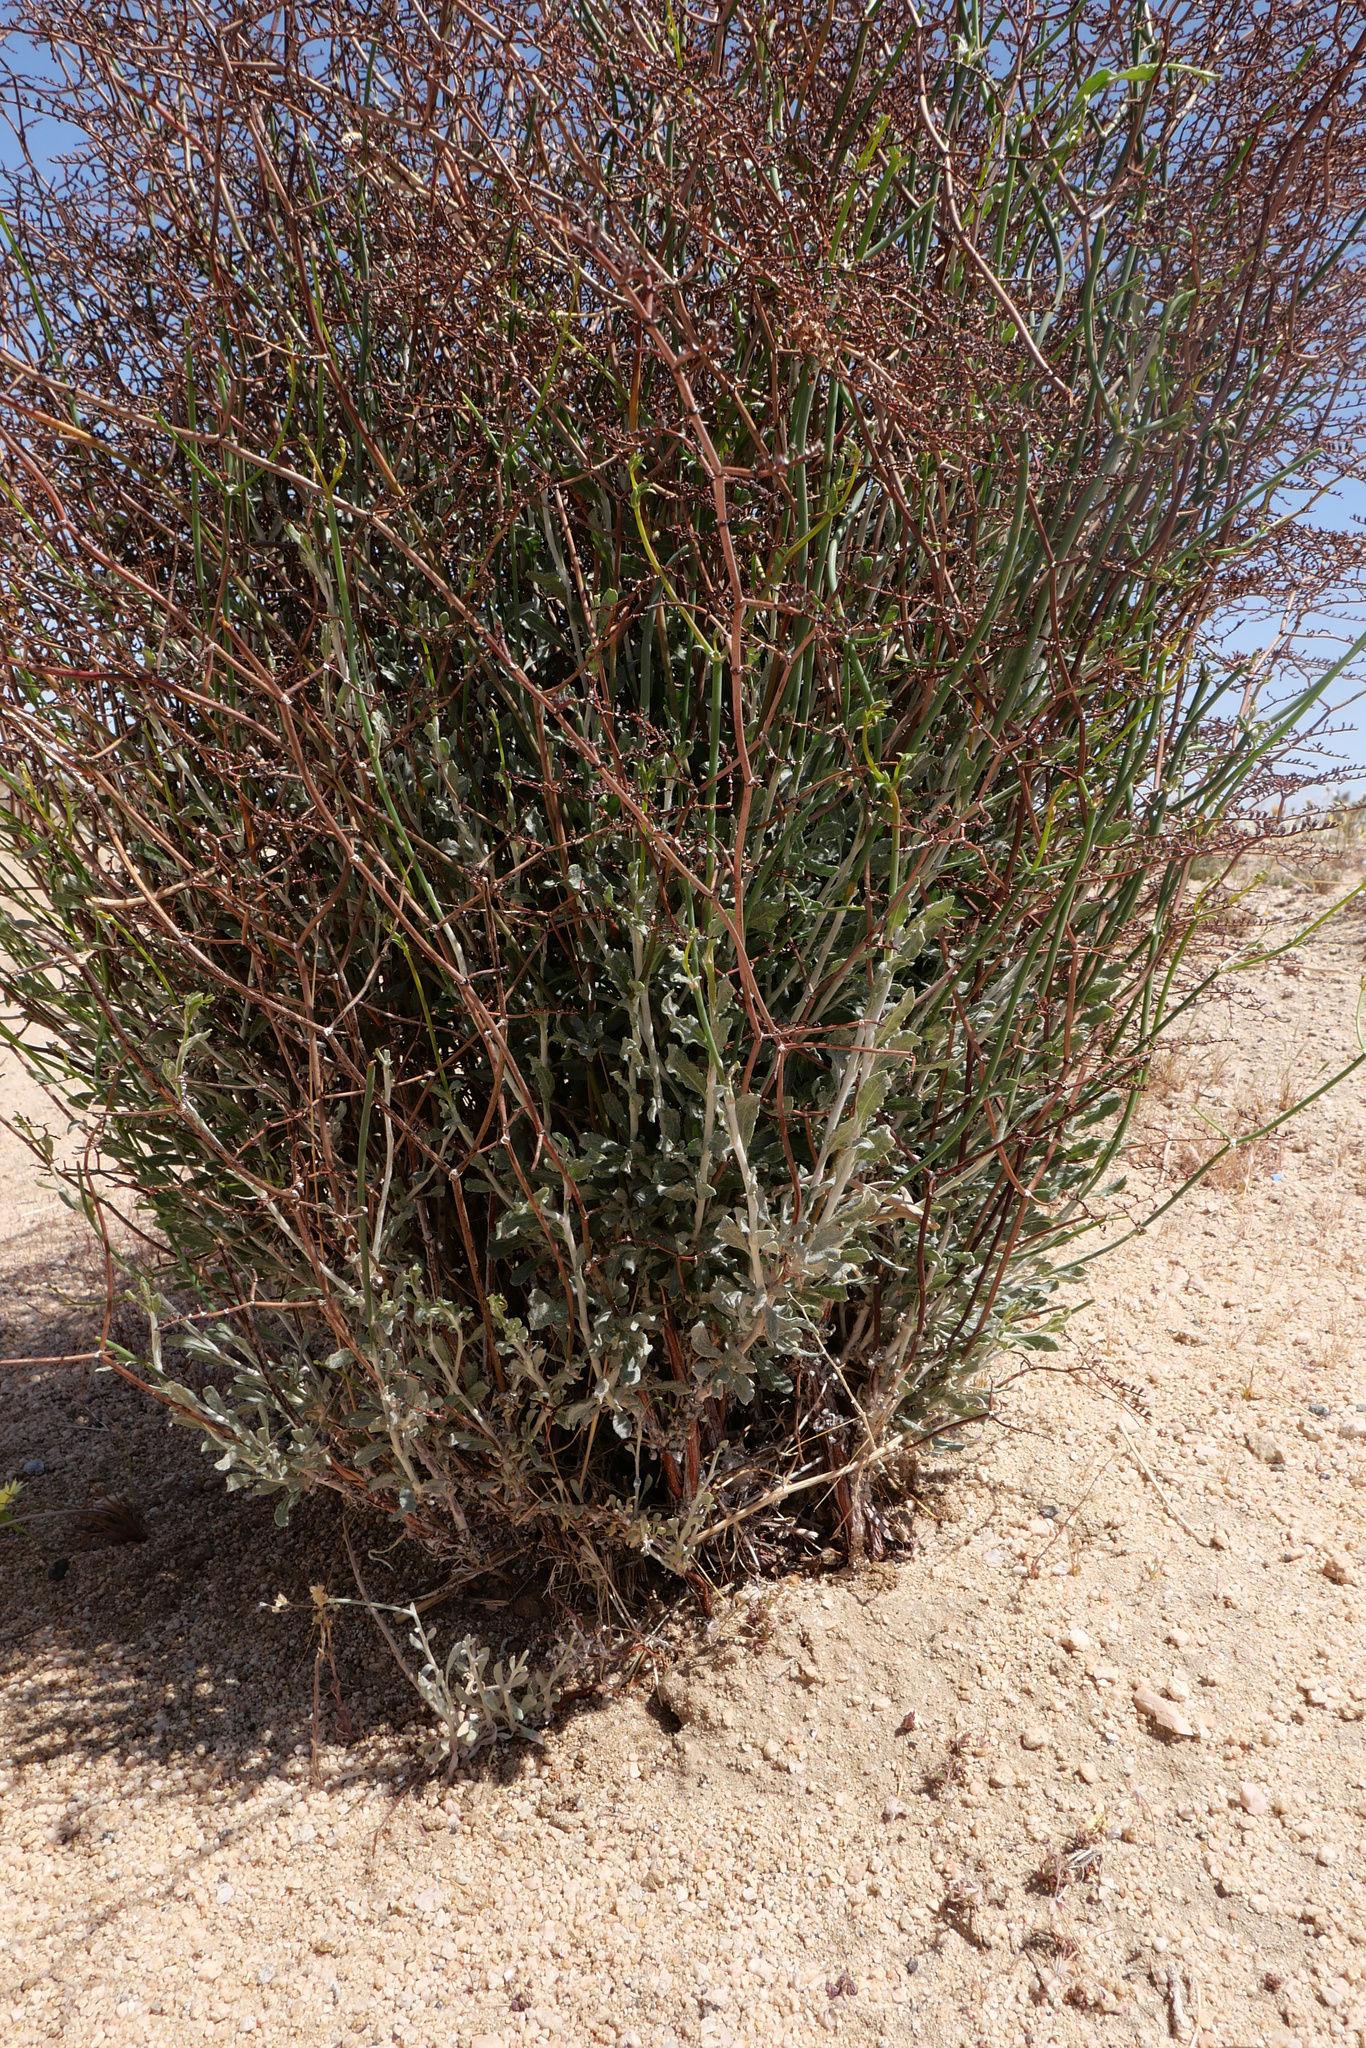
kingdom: Plantae
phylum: Tracheophyta
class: Magnoliopsida
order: Caryophyllales
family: Polygonaceae
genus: Eriogonum
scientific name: Eriogonum plumatella
